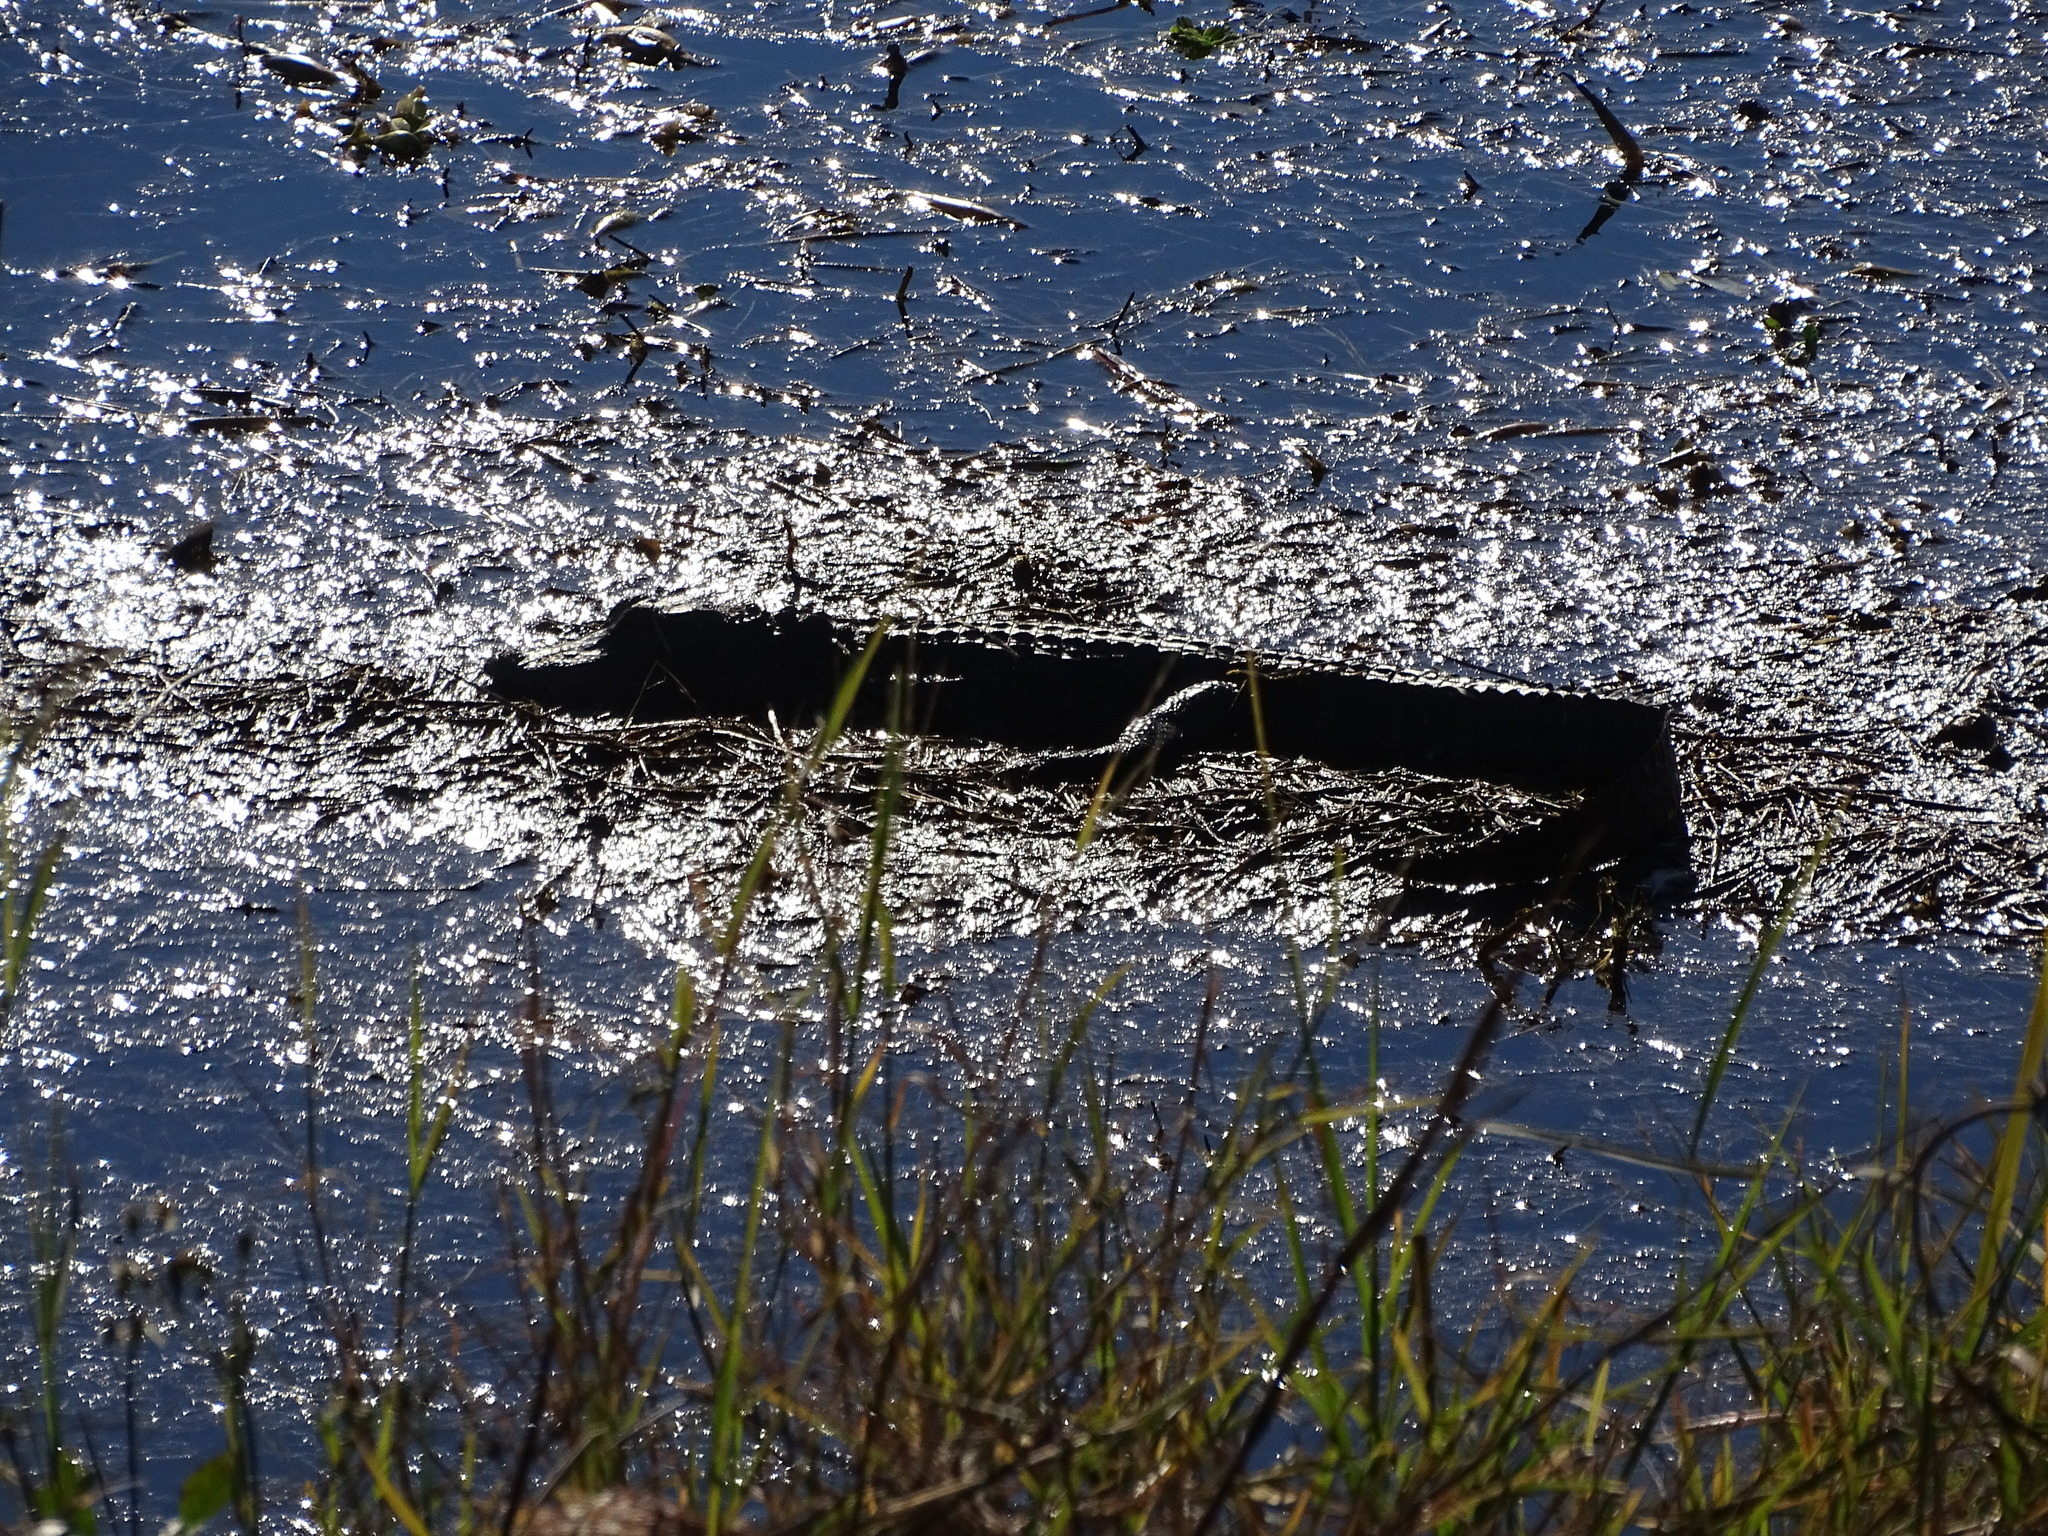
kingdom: Animalia
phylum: Chordata
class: Crocodylia
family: Alligatoridae
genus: Alligator
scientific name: Alligator mississippiensis
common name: American alligator
